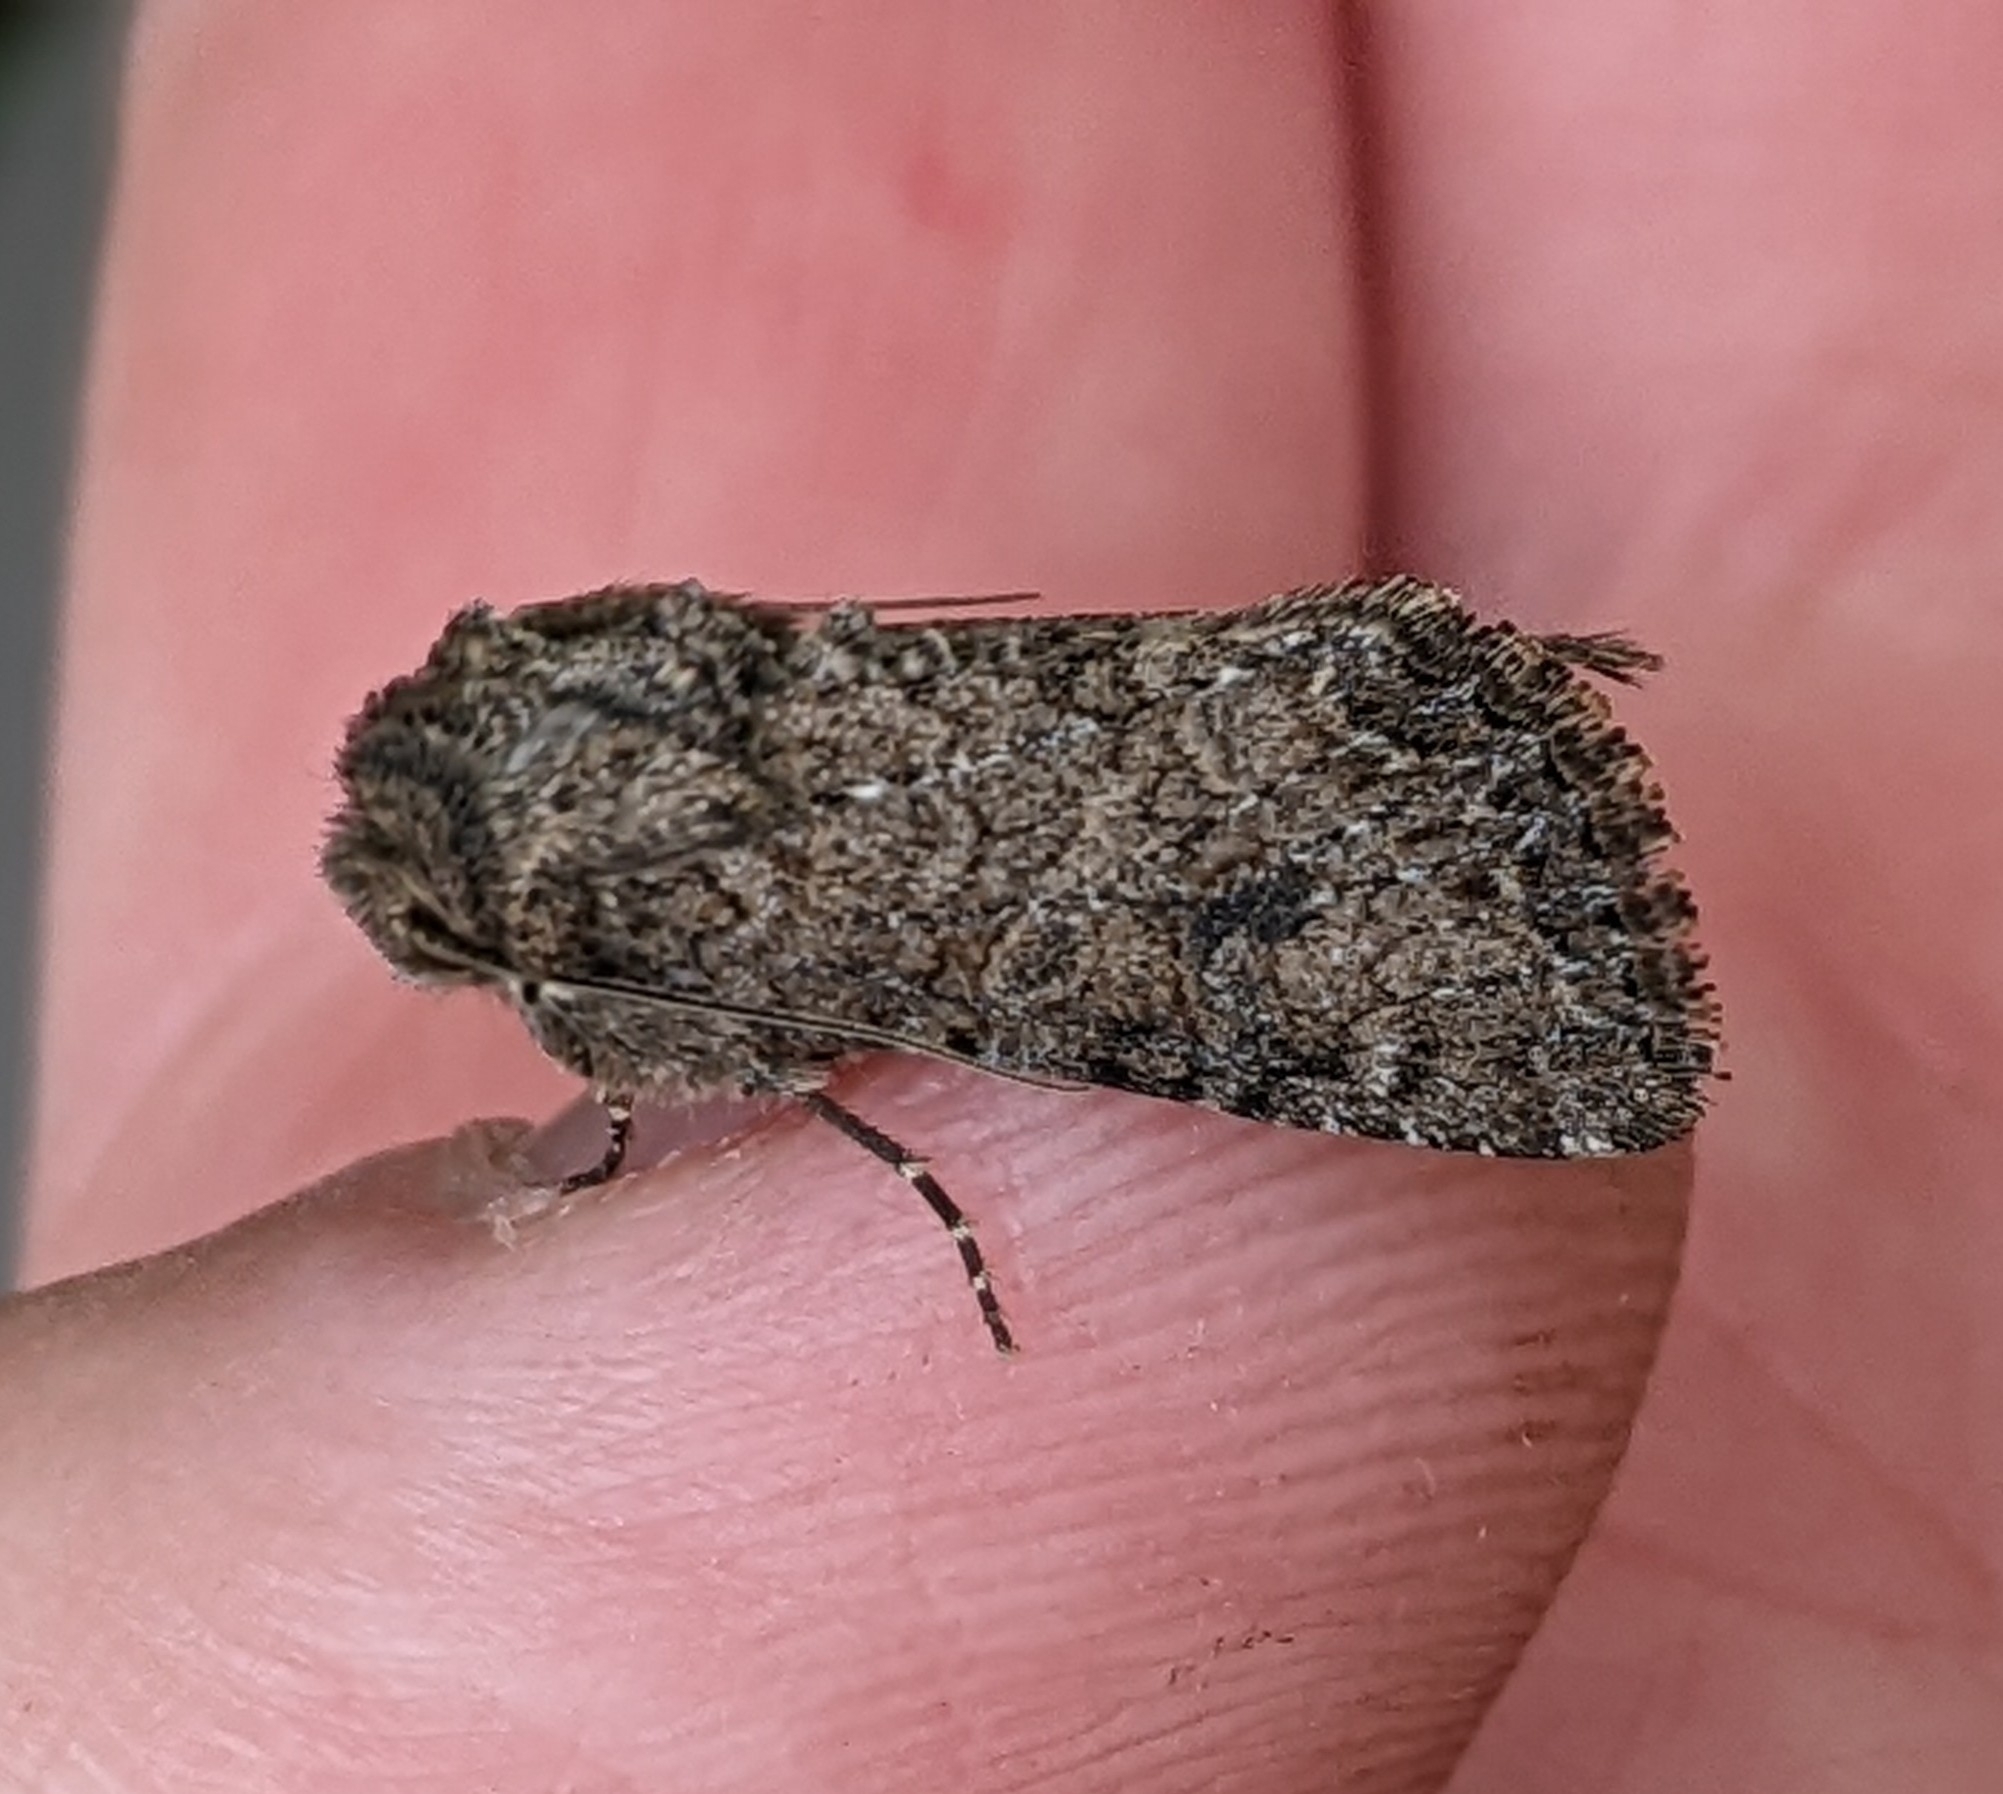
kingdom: Animalia
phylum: Arthropoda
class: Insecta
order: Lepidoptera
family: Noctuidae
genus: Apamea
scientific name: Apamea devastator
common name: Glassy cutworm
